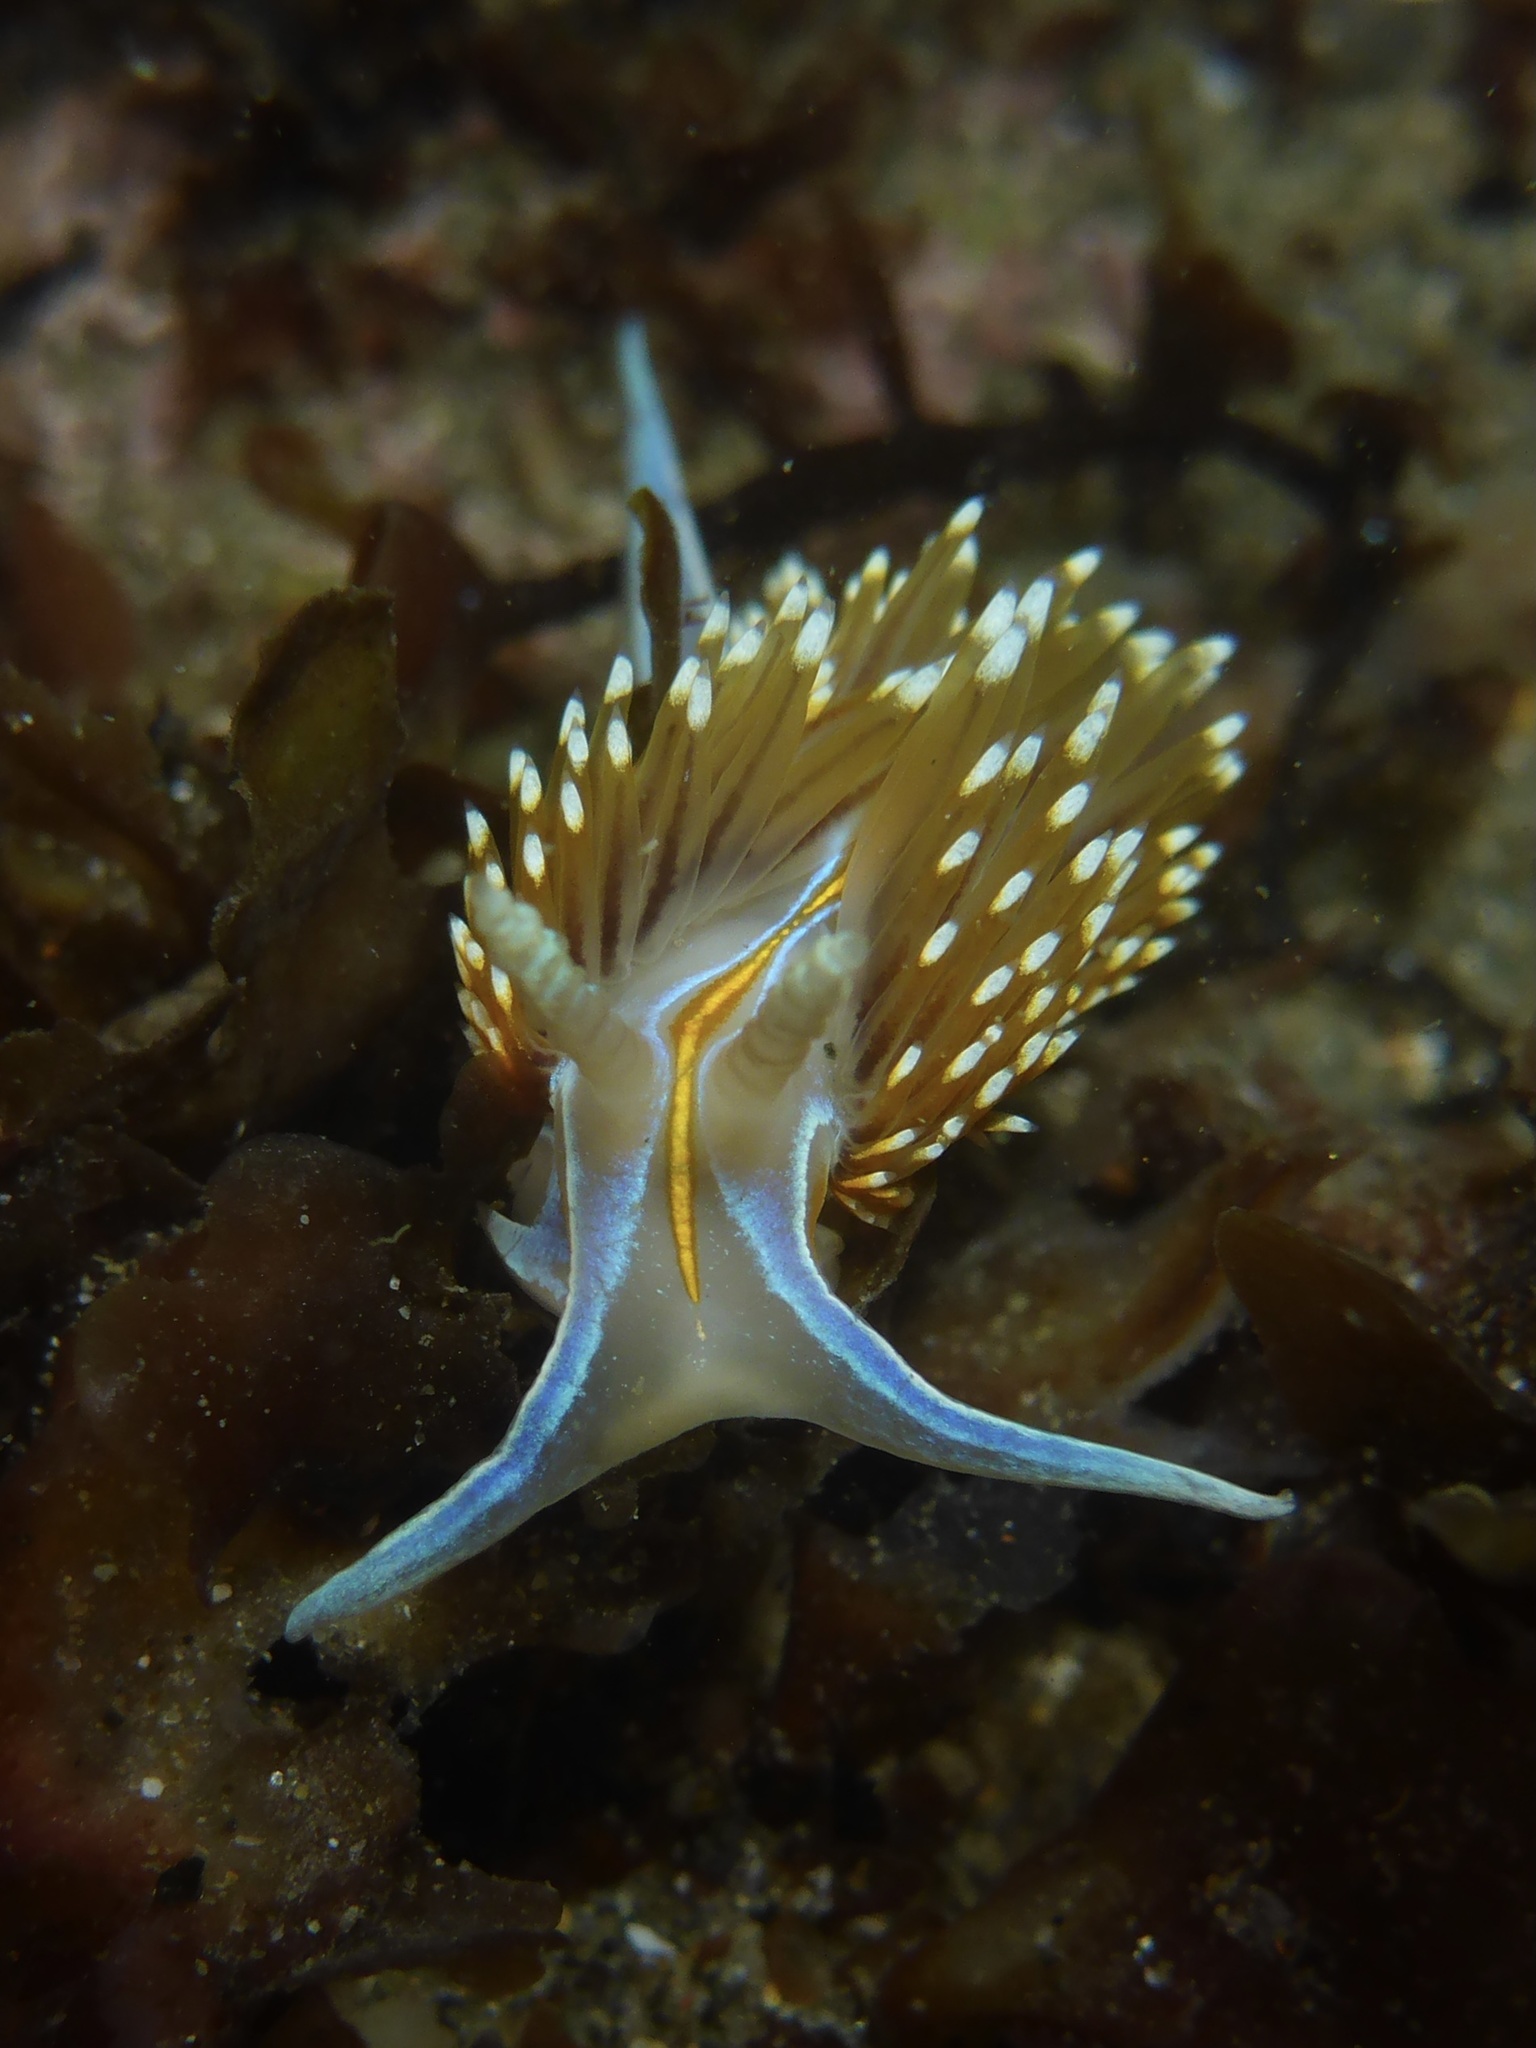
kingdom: Animalia
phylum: Mollusca
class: Gastropoda
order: Nudibranchia
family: Myrrhinidae
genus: Hermissenda
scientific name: Hermissenda opalescens
